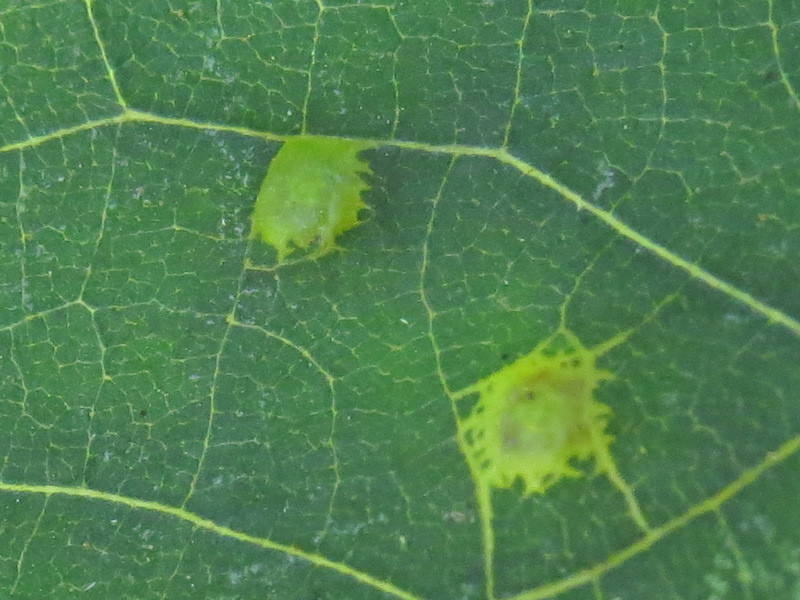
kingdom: Animalia
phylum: Arthropoda
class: Insecta
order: Diptera
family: Cecidomyiidae
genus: Caryomyia
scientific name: Caryomyia inflata
